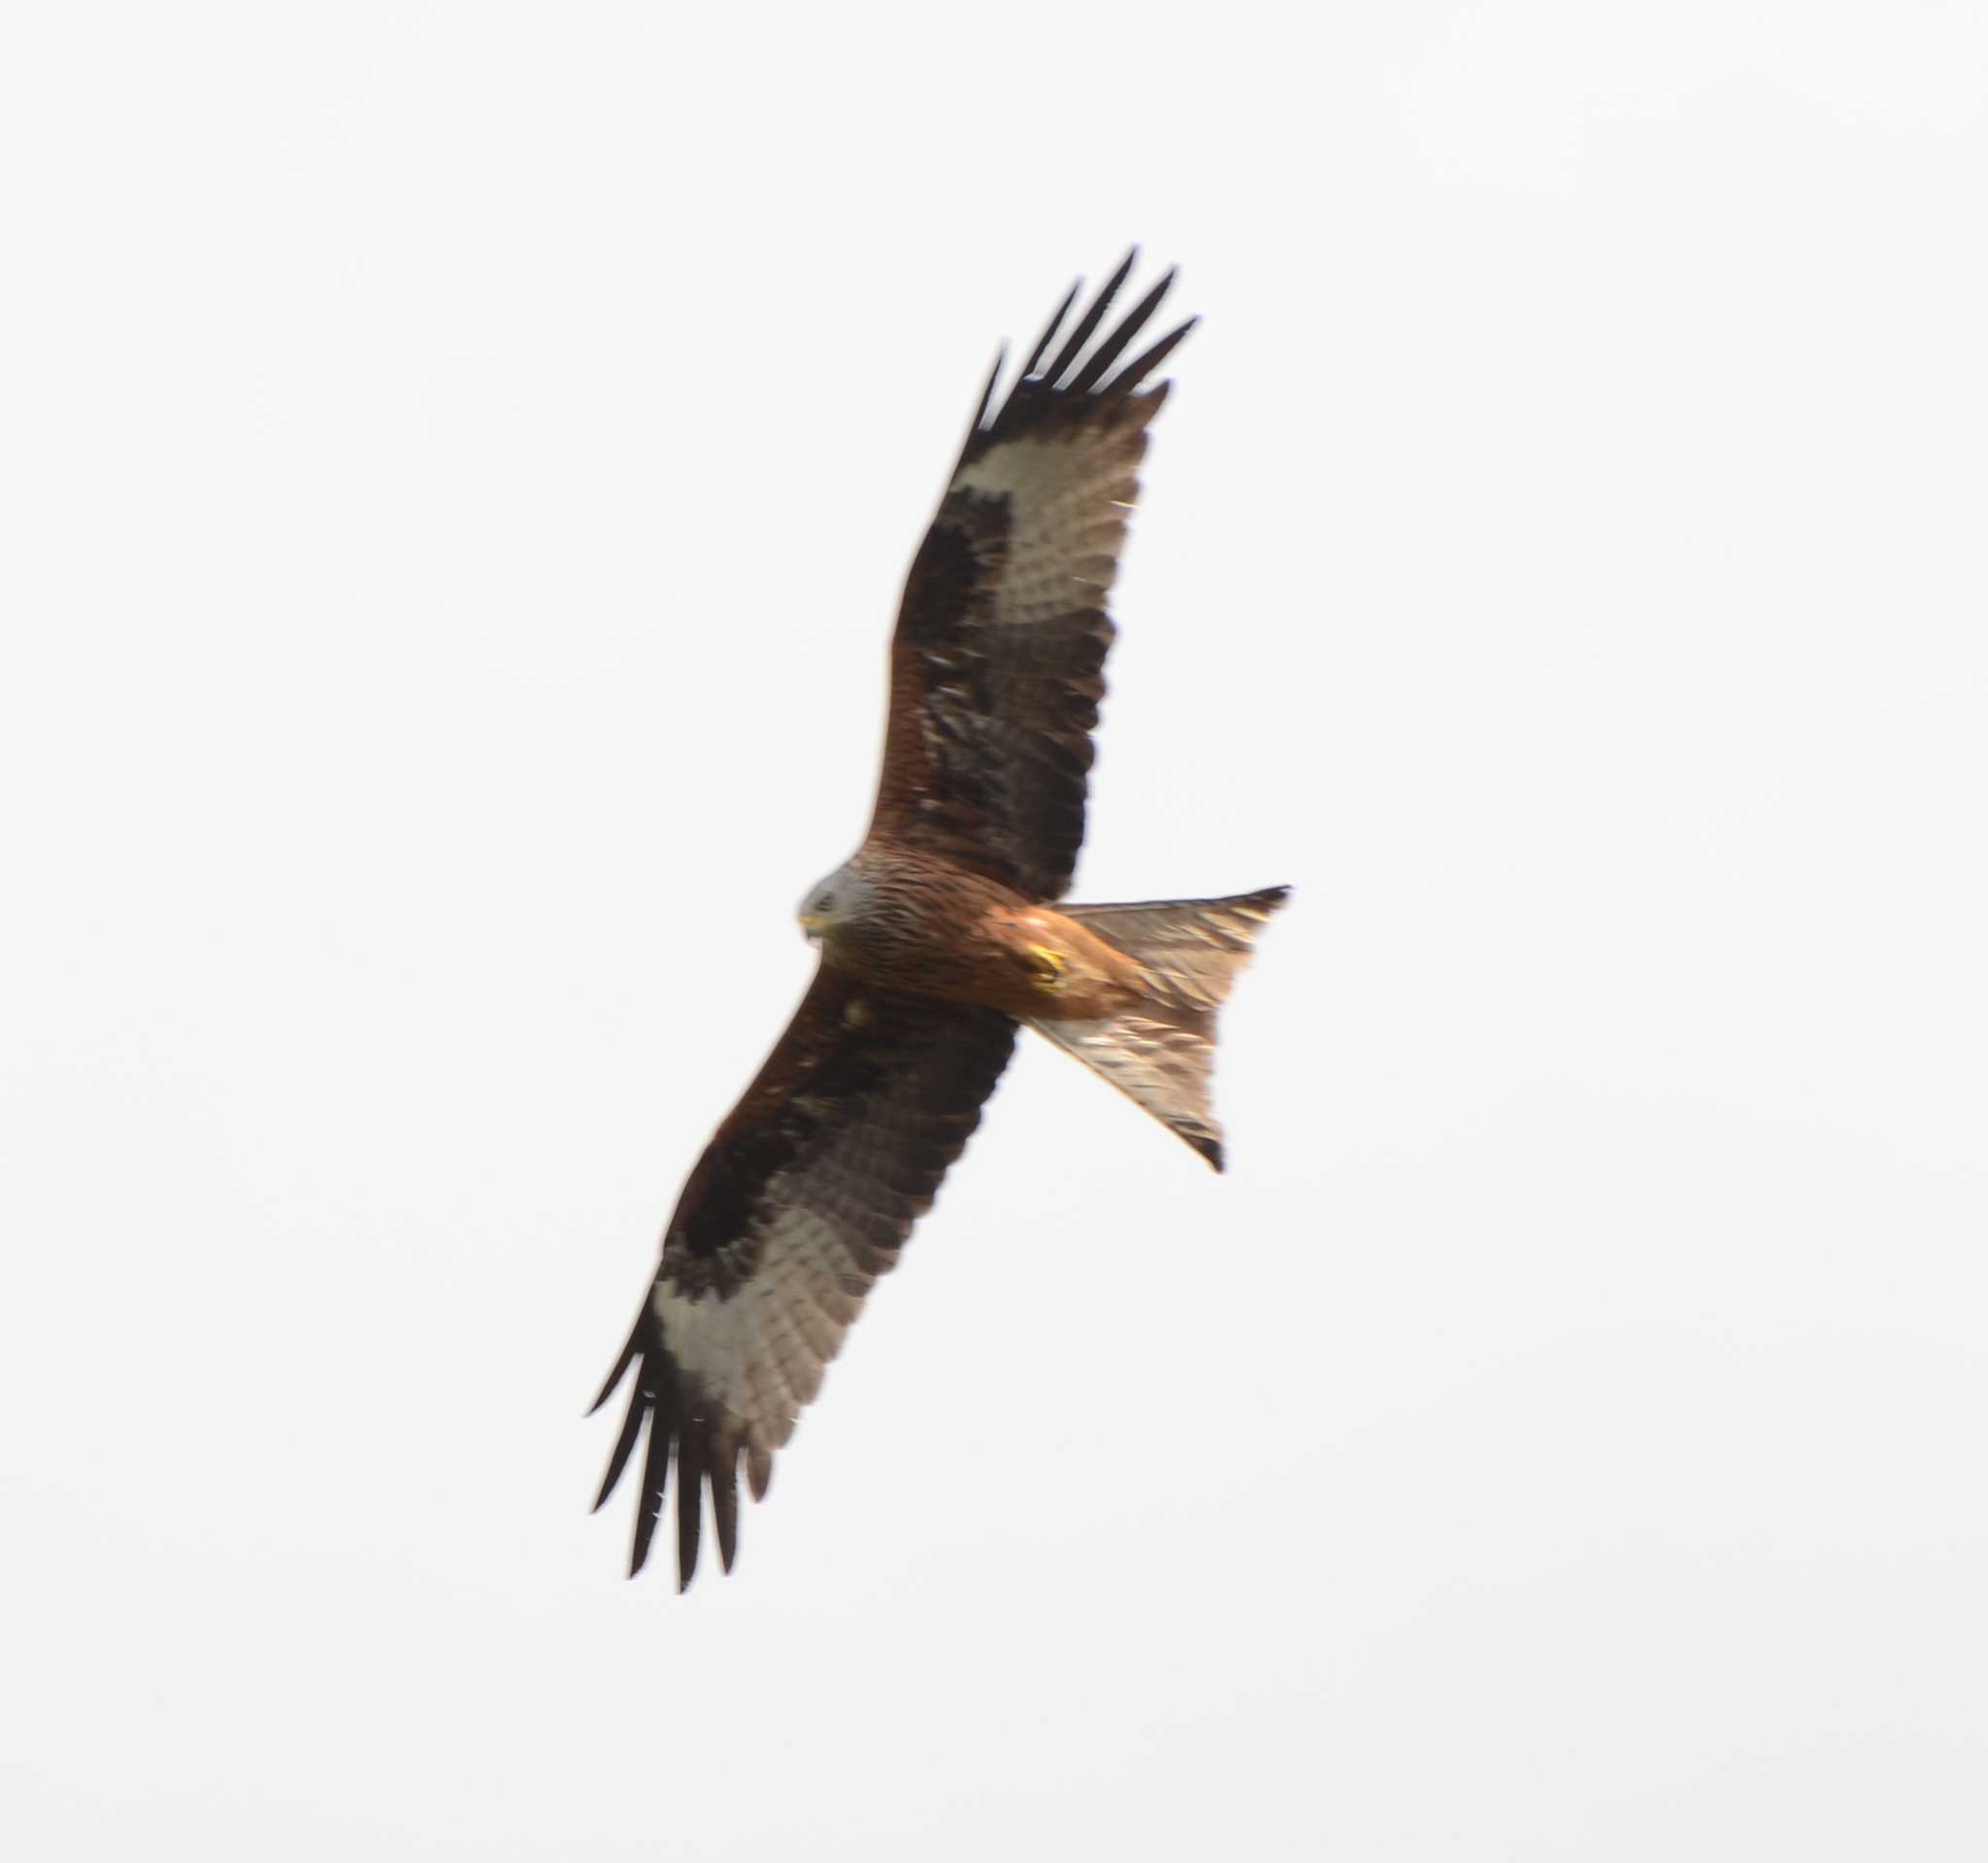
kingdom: Animalia
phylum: Chordata
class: Aves
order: Accipitriformes
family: Accipitridae
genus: Milvus
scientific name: Milvus milvus
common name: Red kite
